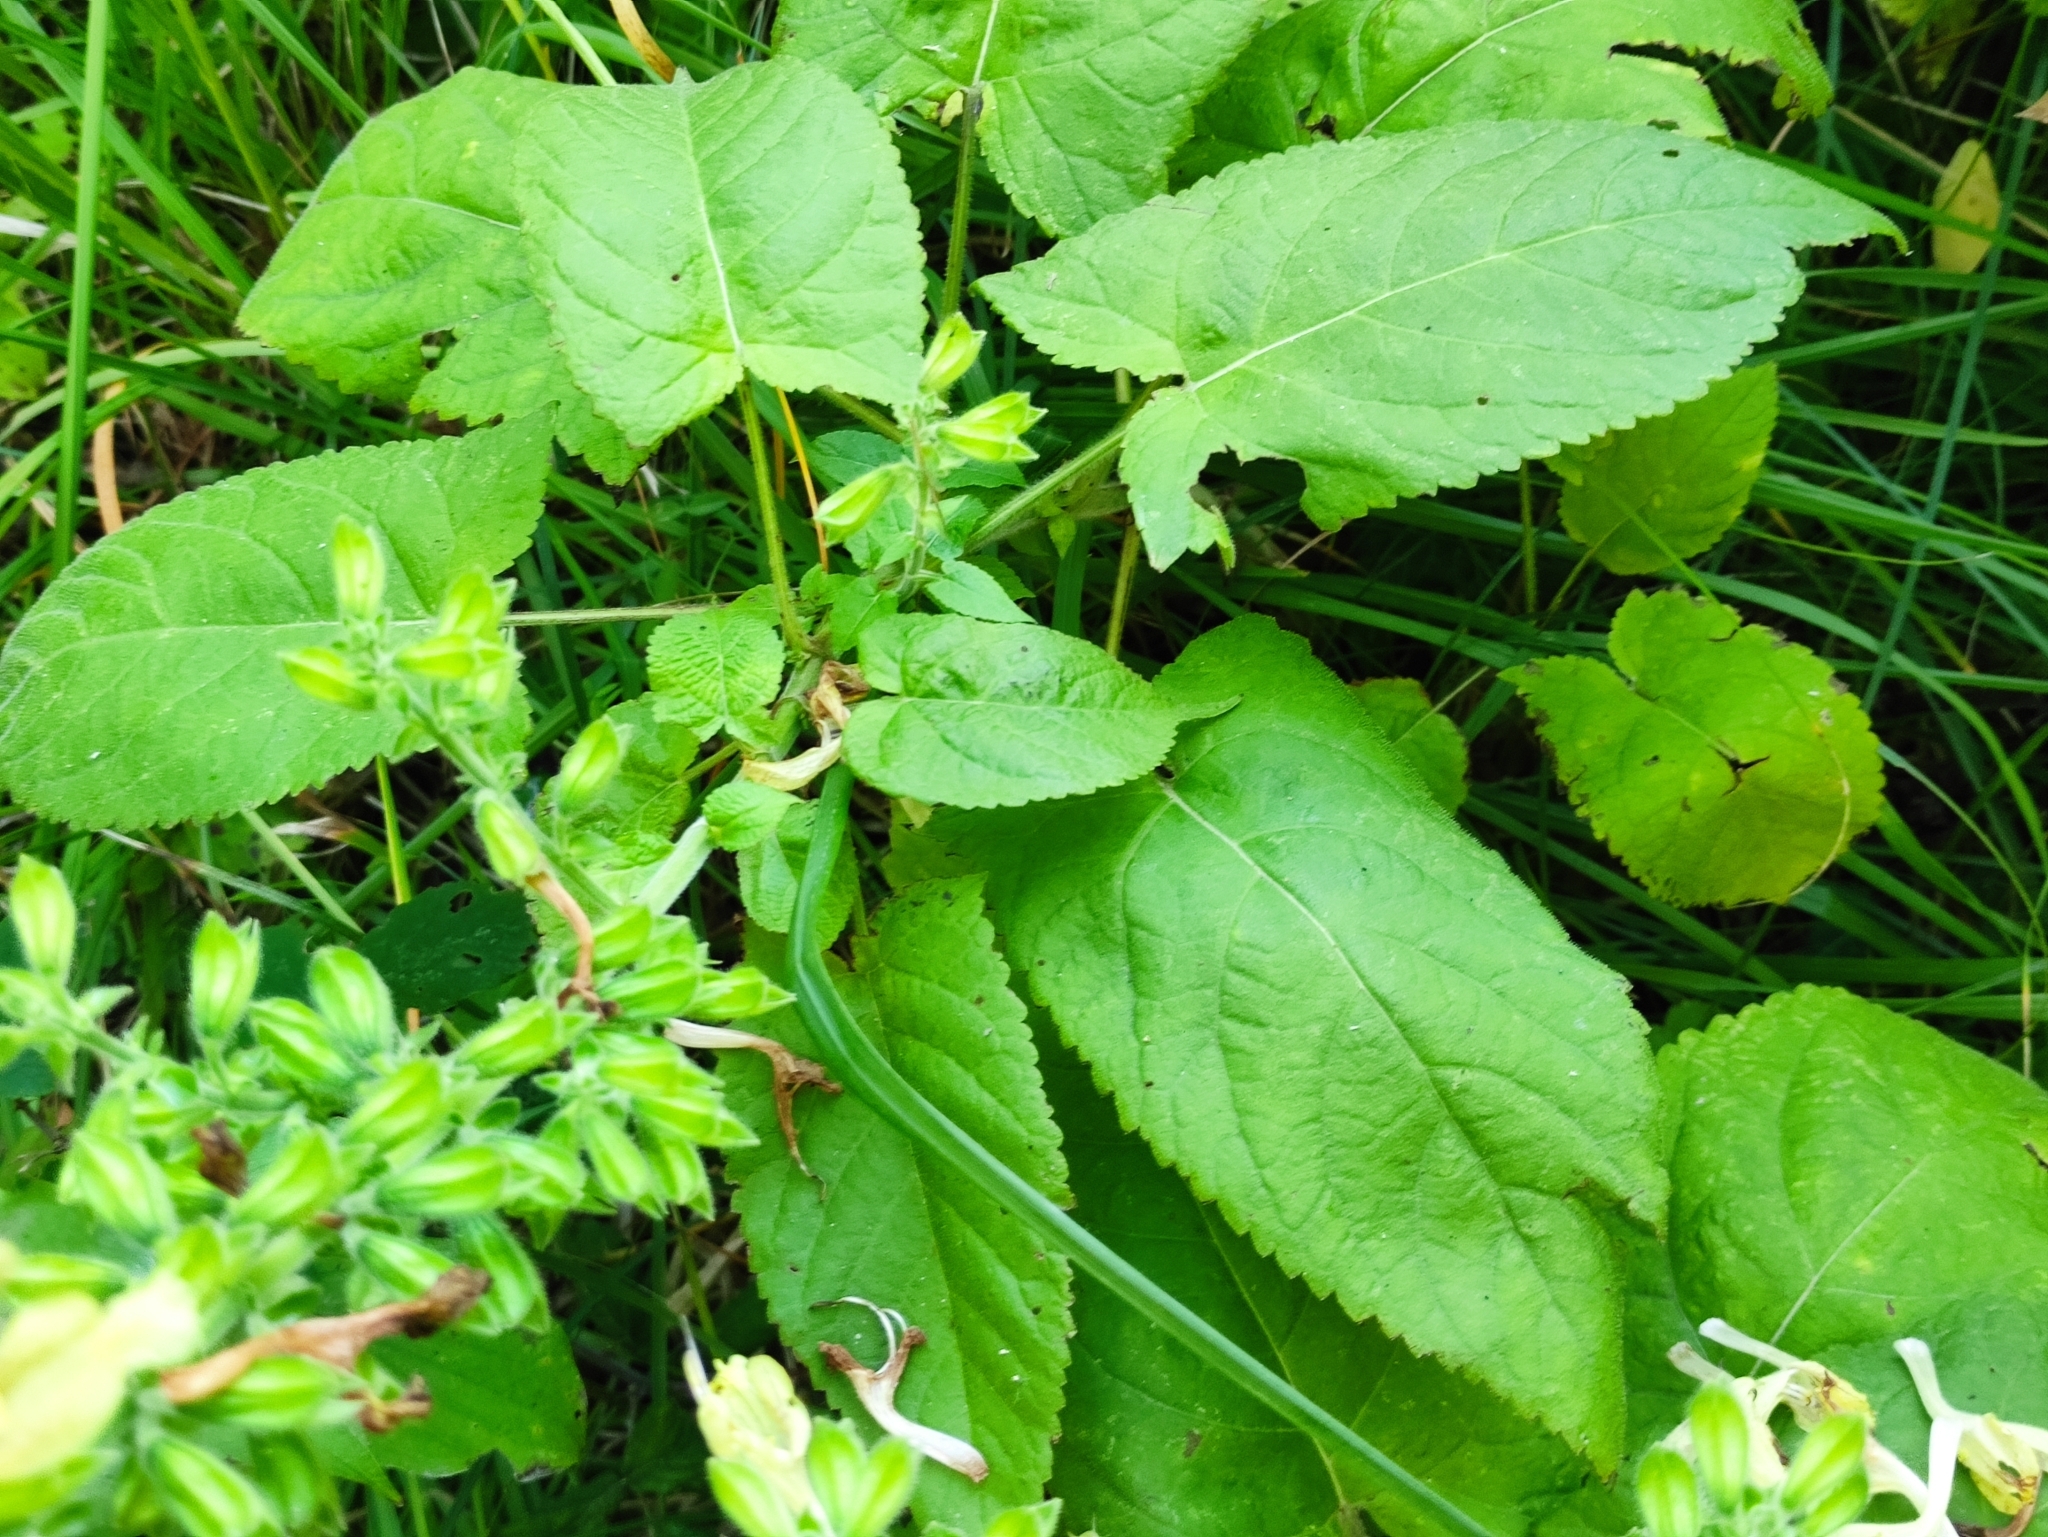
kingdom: Plantae
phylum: Tracheophyta
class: Magnoliopsida
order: Lamiales
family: Lamiaceae
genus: Salvia
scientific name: Salvia glutinosa
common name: Sticky clary
